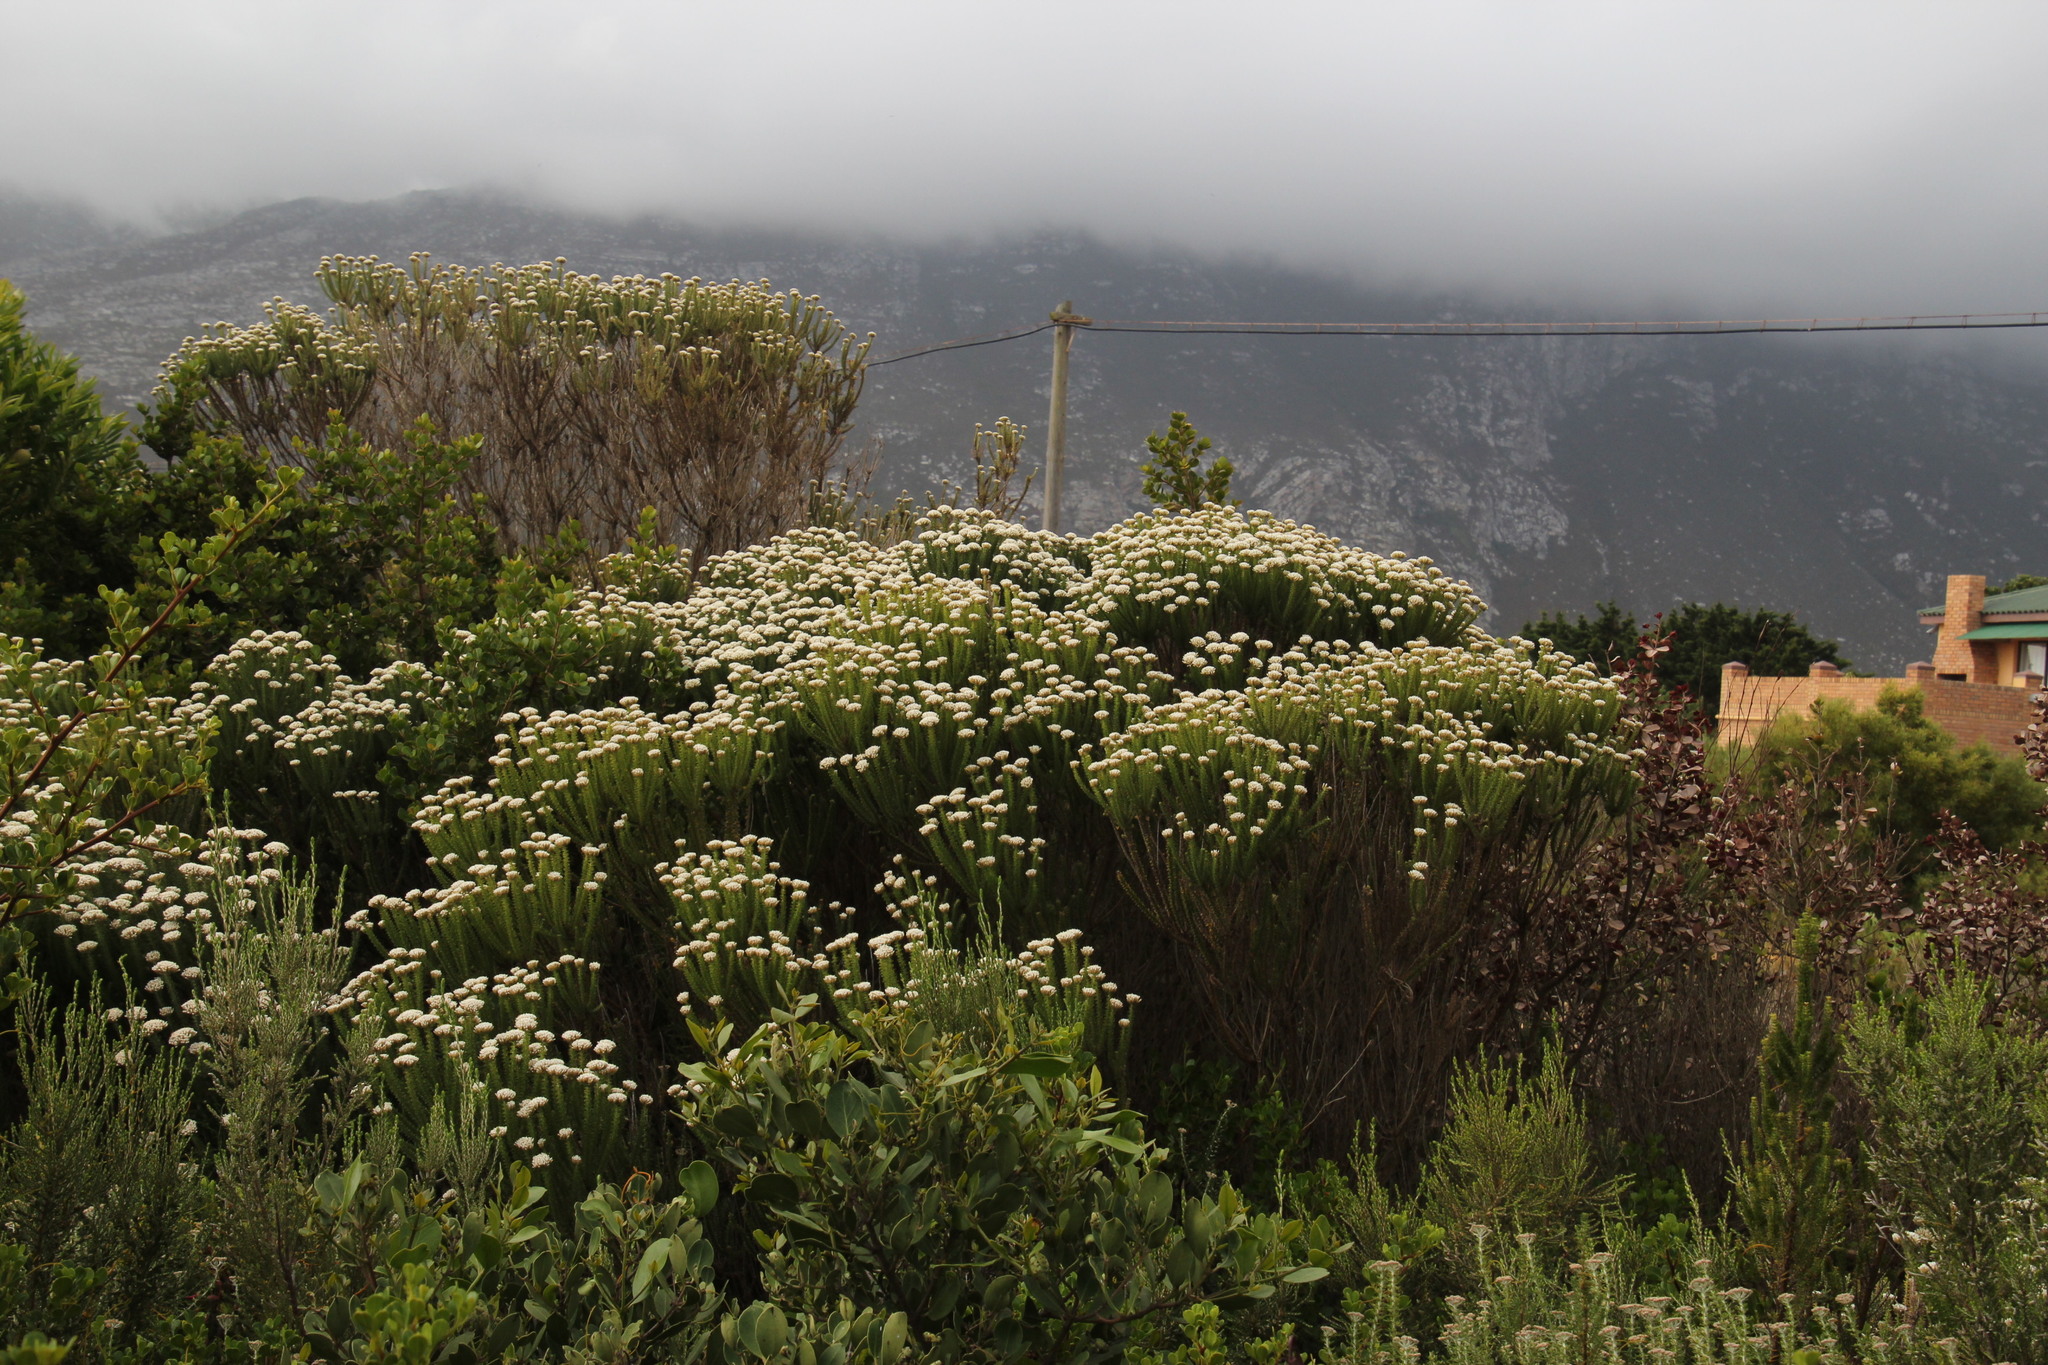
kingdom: Plantae
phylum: Tracheophyta
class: Magnoliopsida
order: Asterales
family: Asteraceae
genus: Metalasia
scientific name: Metalasia muricata
